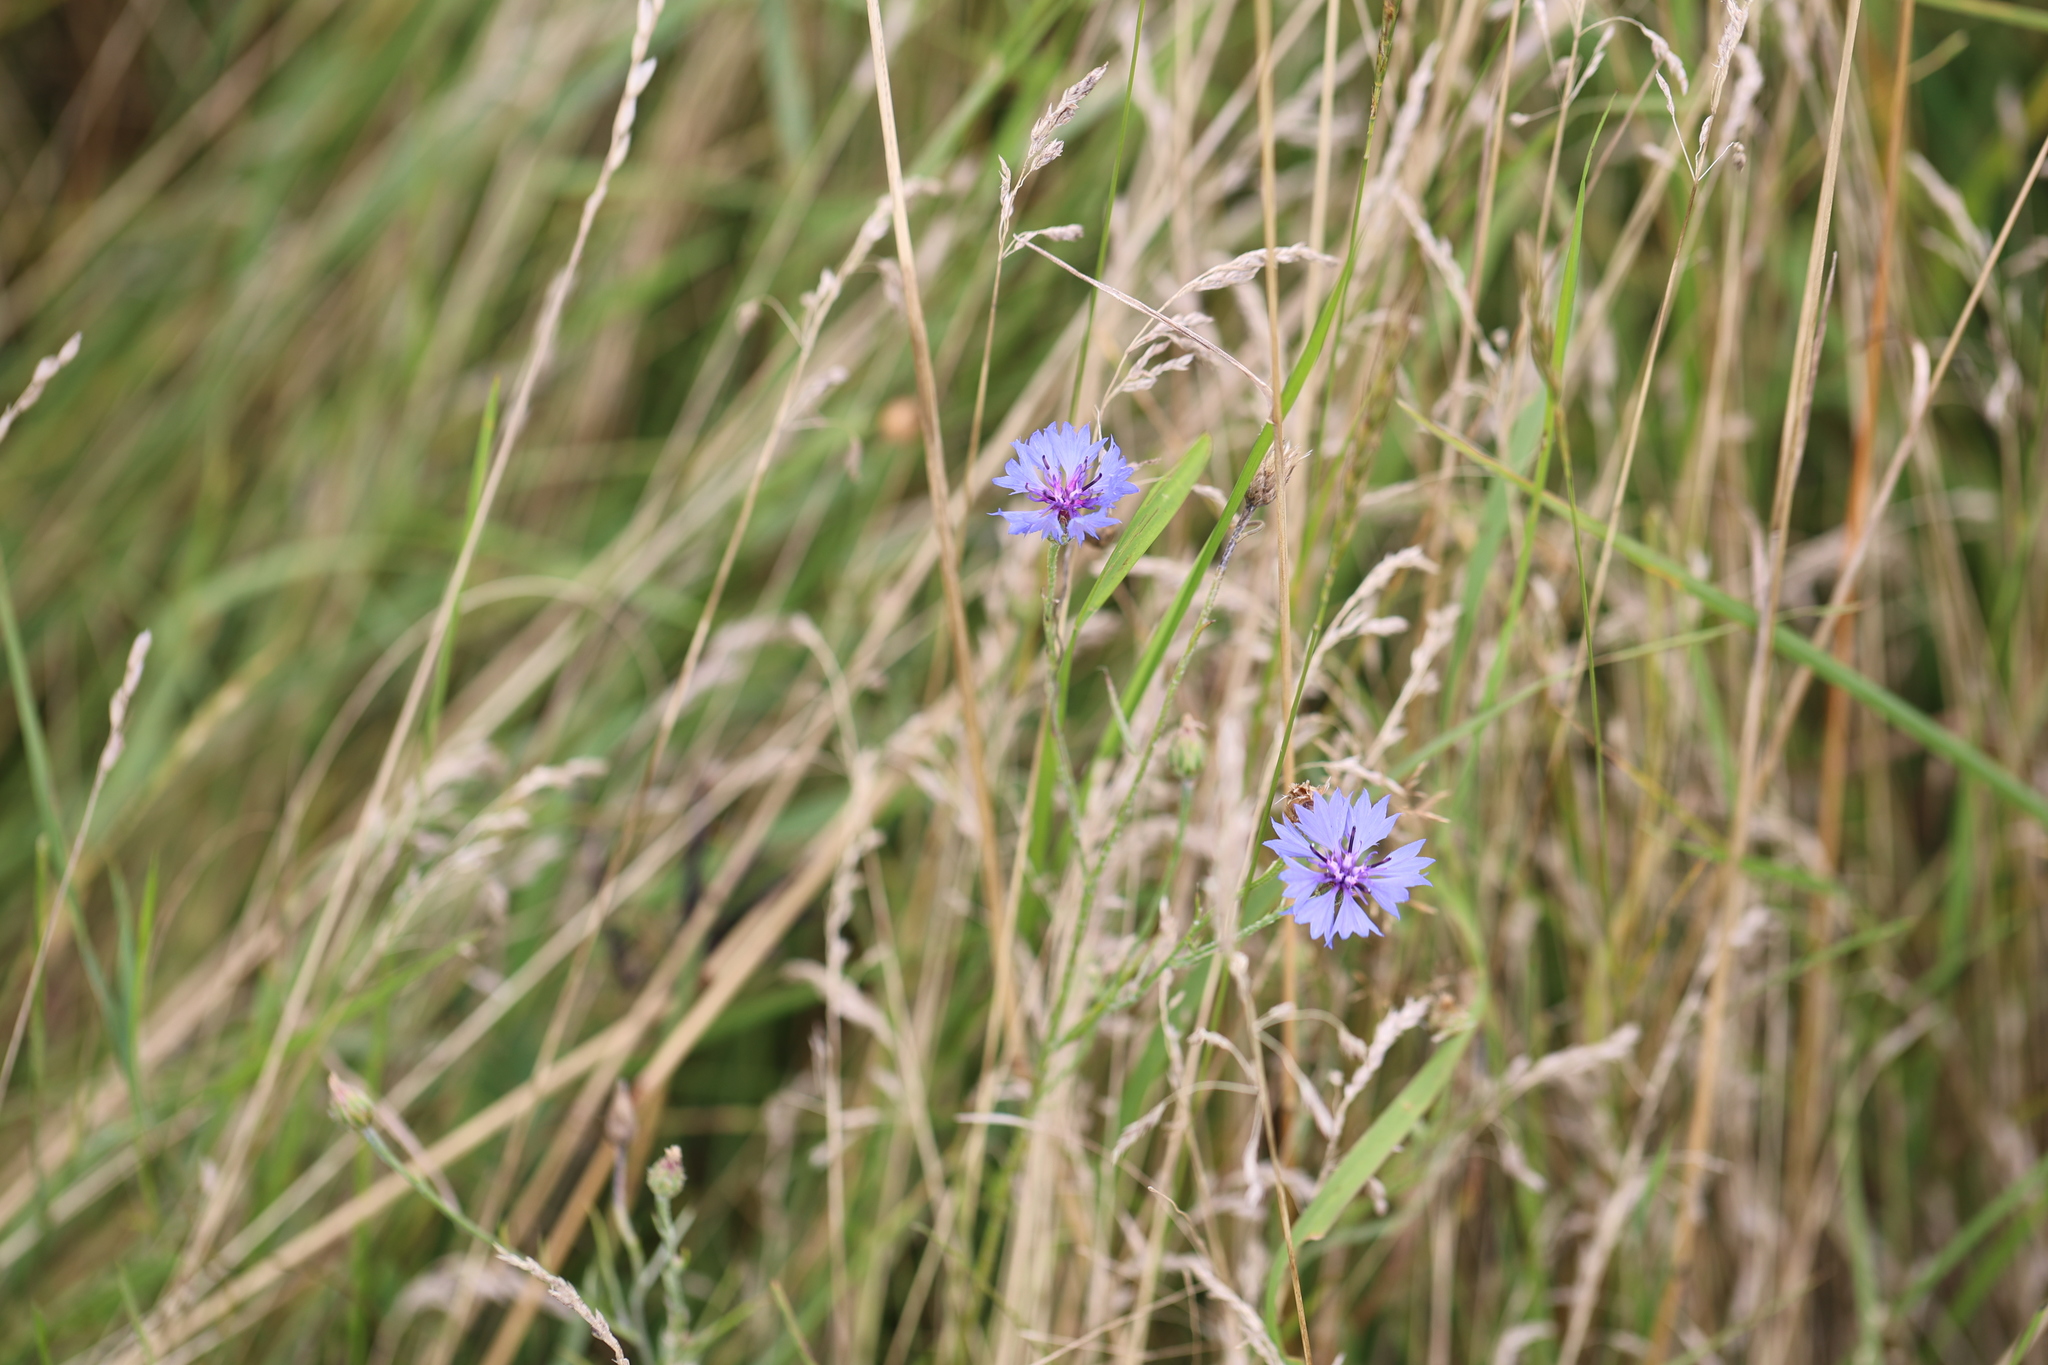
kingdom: Plantae
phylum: Tracheophyta
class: Magnoliopsida
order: Asterales
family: Asteraceae
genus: Centaurea
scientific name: Centaurea cyanus
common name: Cornflower
